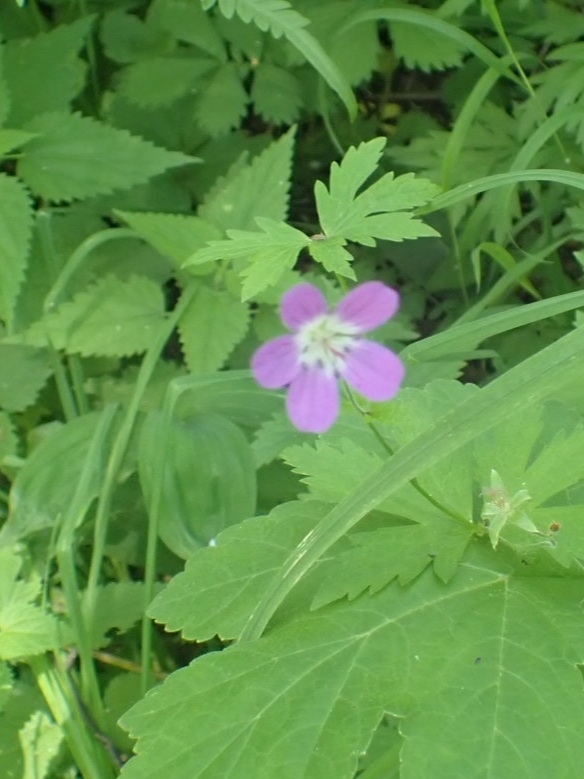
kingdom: Plantae
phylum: Tracheophyta
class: Magnoliopsida
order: Geraniales
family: Geraniaceae
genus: Geranium
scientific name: Geranium sylvaticum
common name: Wood crane's-bill
